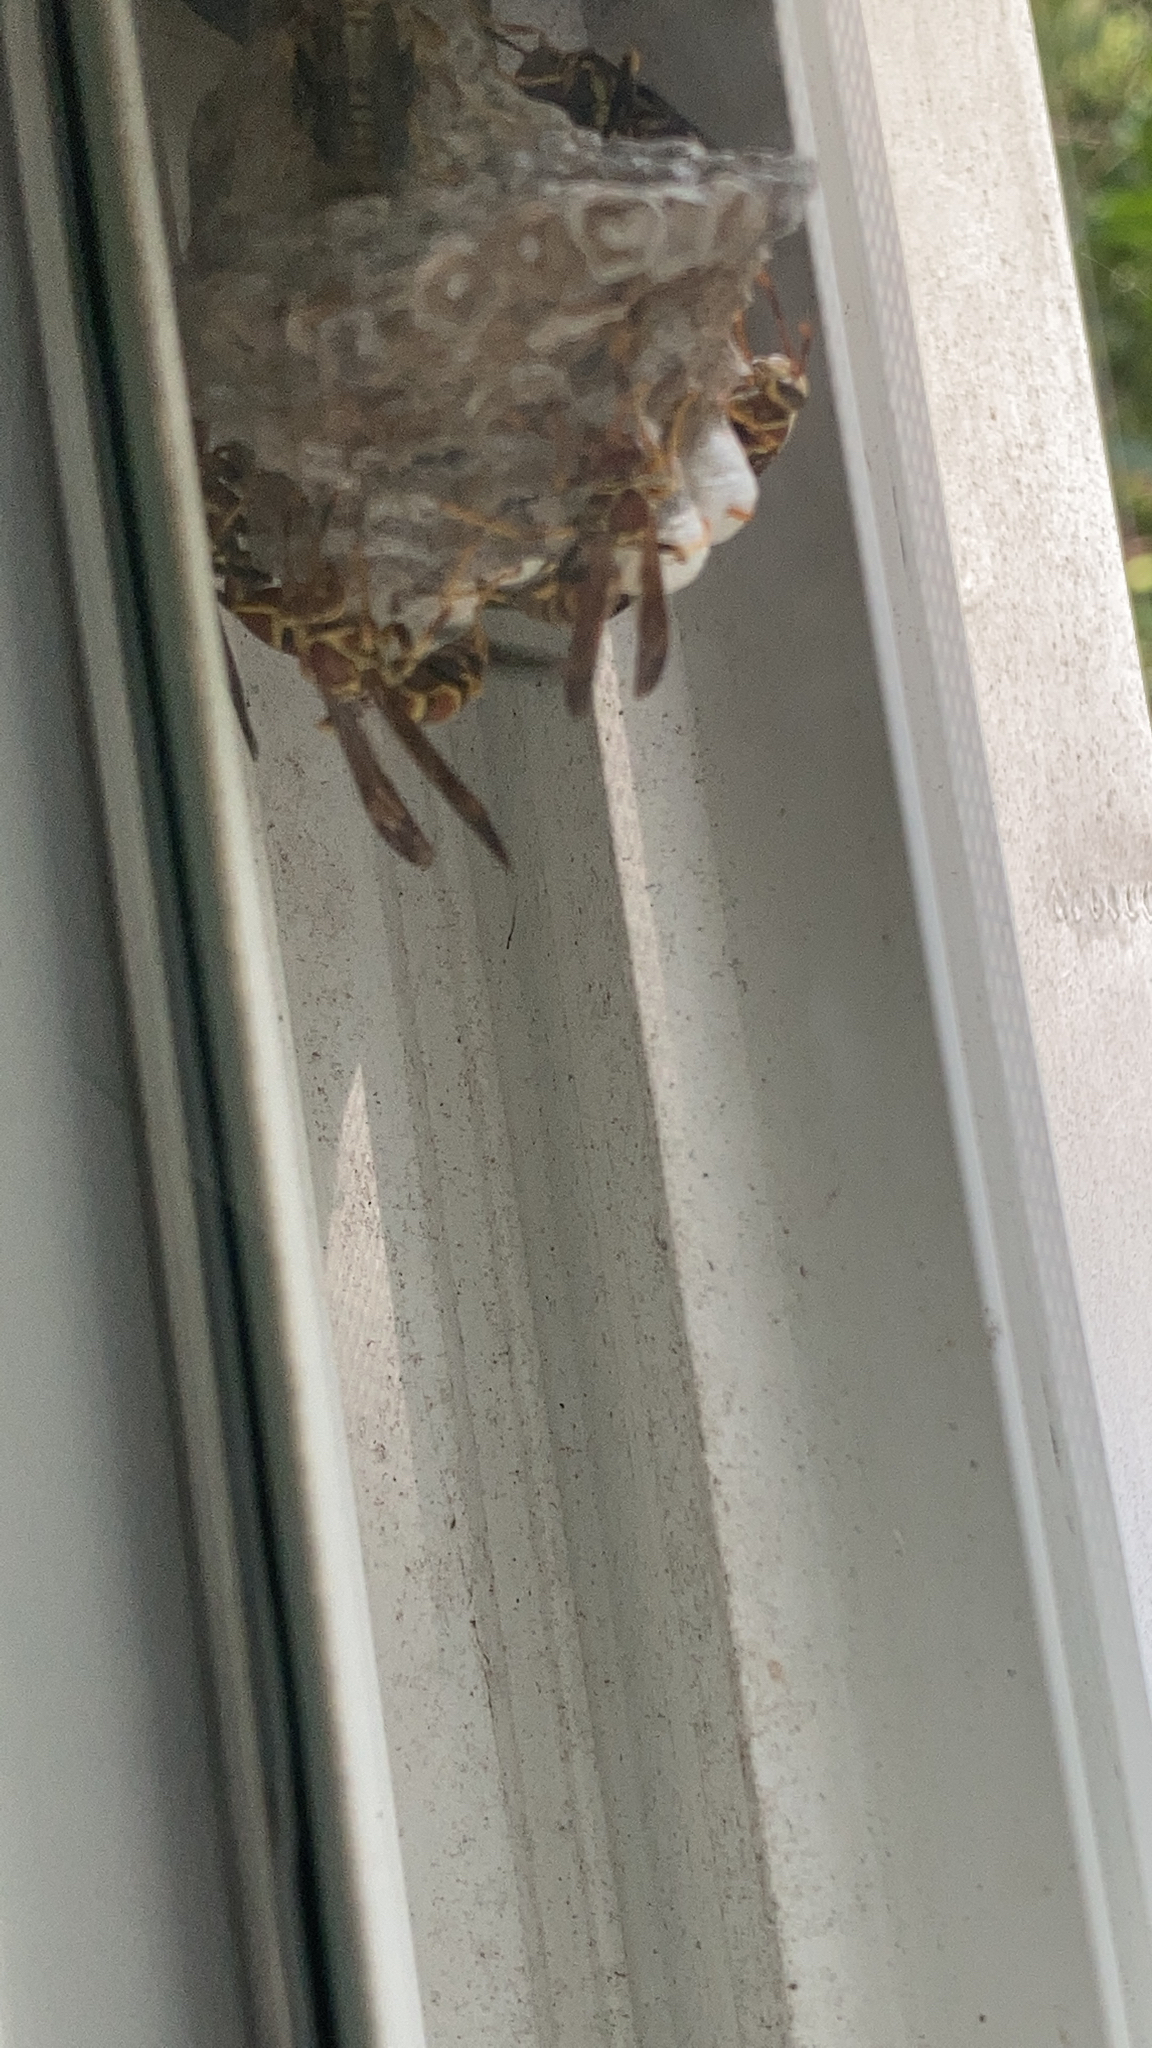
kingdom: Animalia
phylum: Arthropoda
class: Insecta
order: Hymenoptera
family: Eumenidae
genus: Polistes
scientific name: Polistes exclamans
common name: Paper wasp
